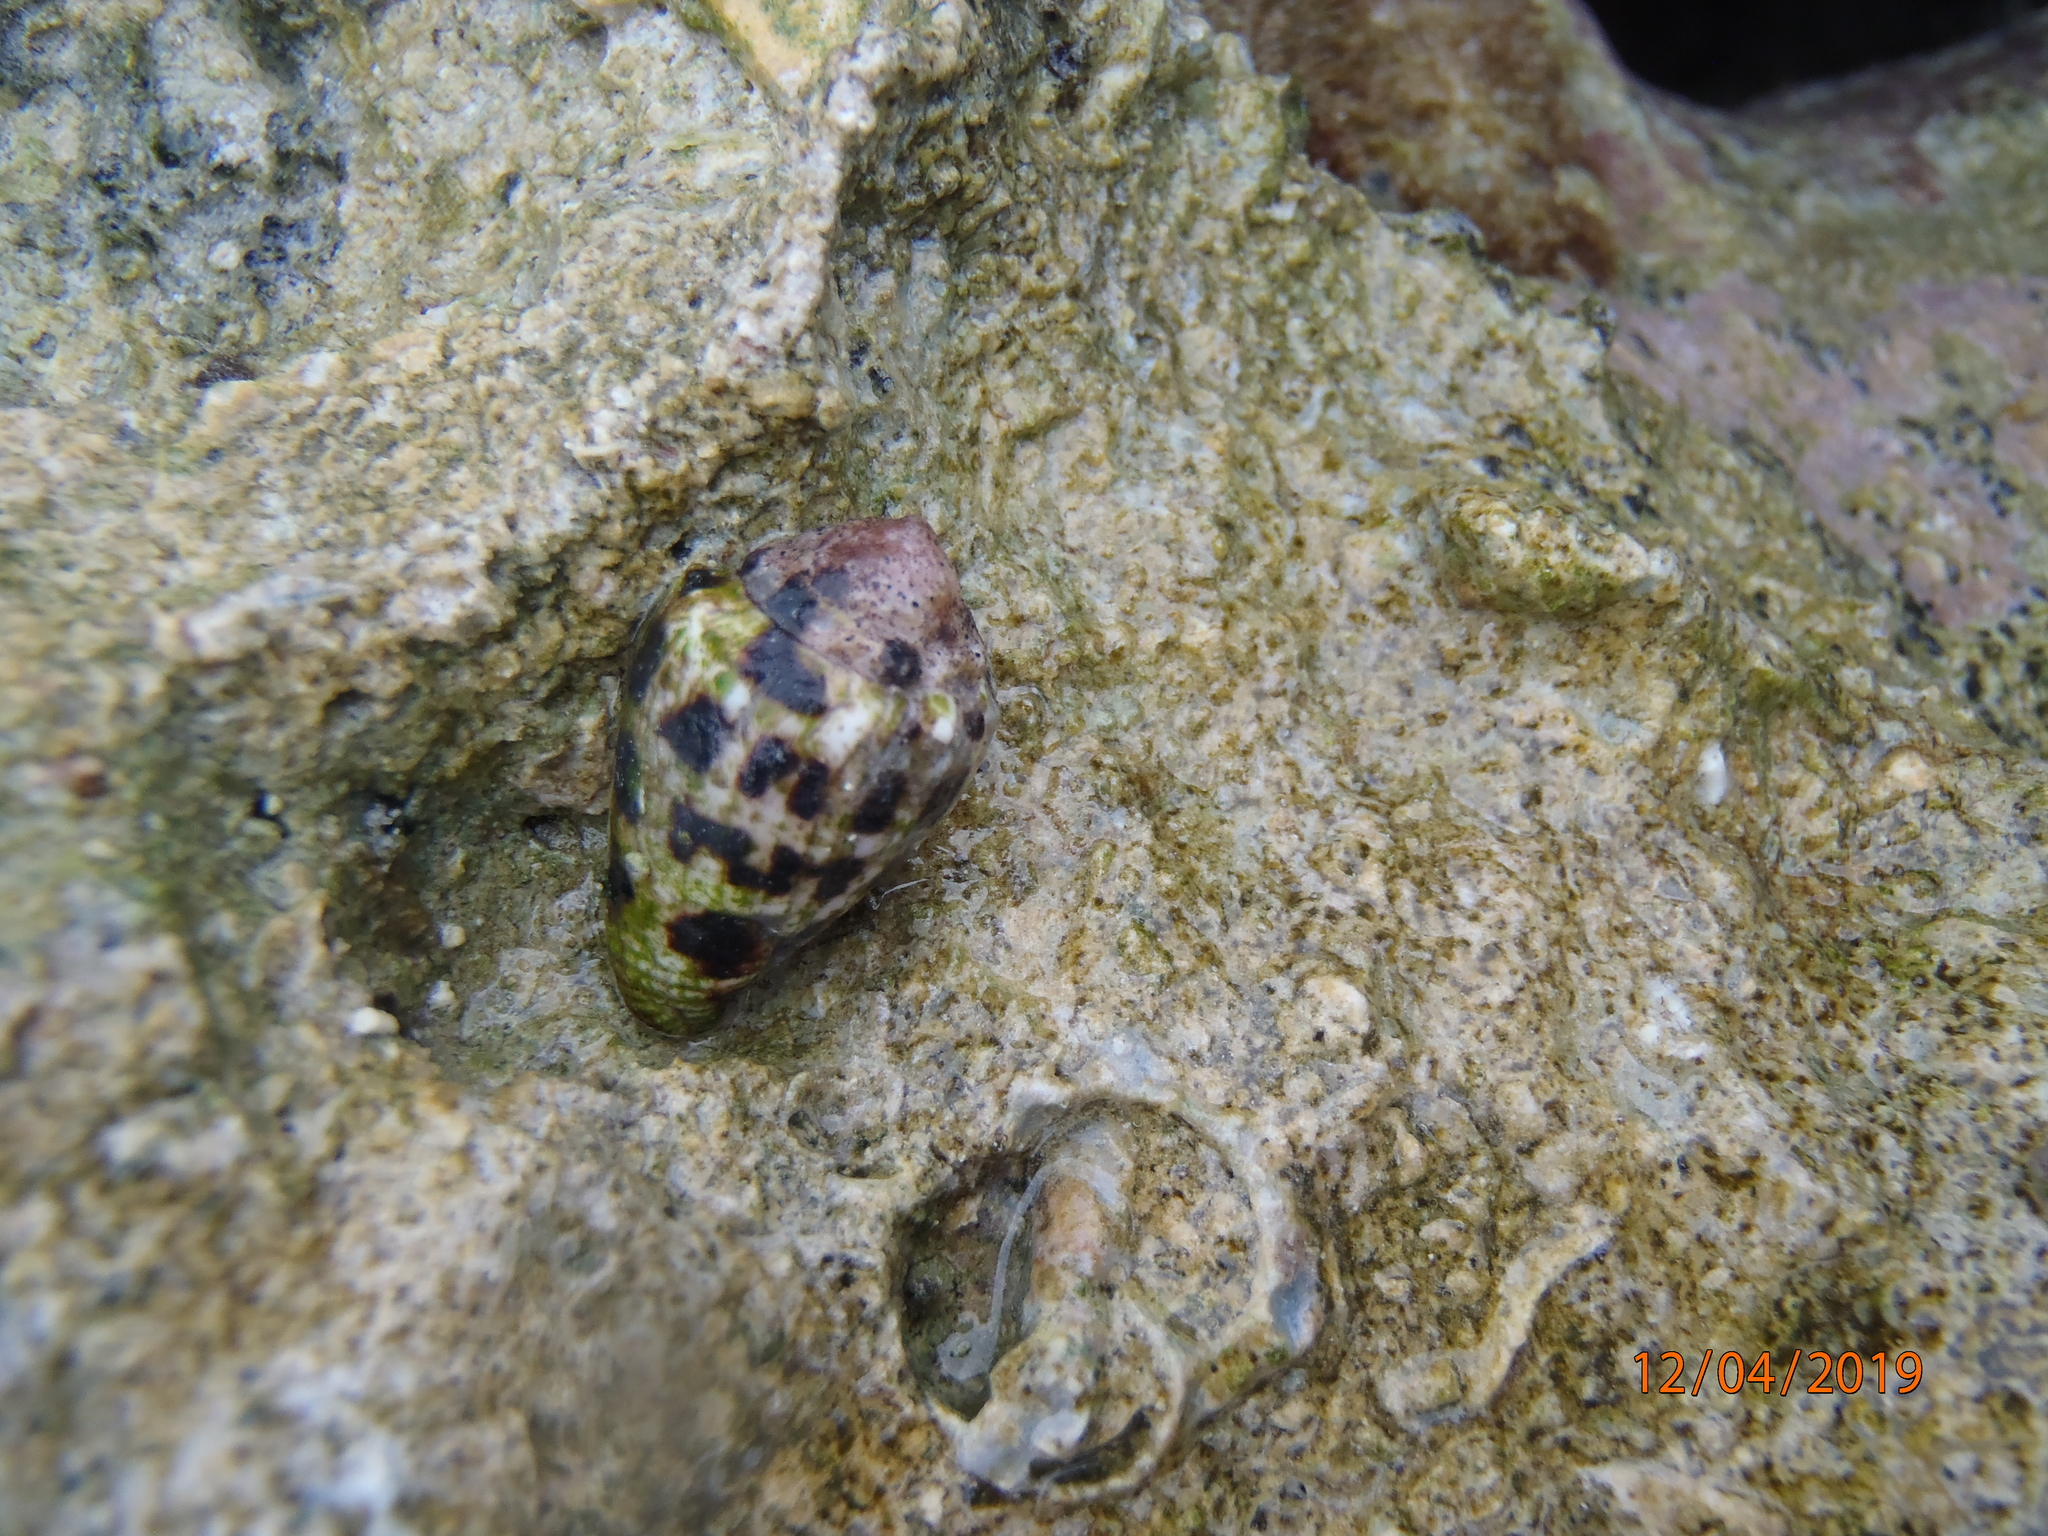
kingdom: Animalia
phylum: Mollusca
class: Gastropoda
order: Neogastropoda
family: Conidae
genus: Conus
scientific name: Conus ebraeus
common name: Hebrew cone
